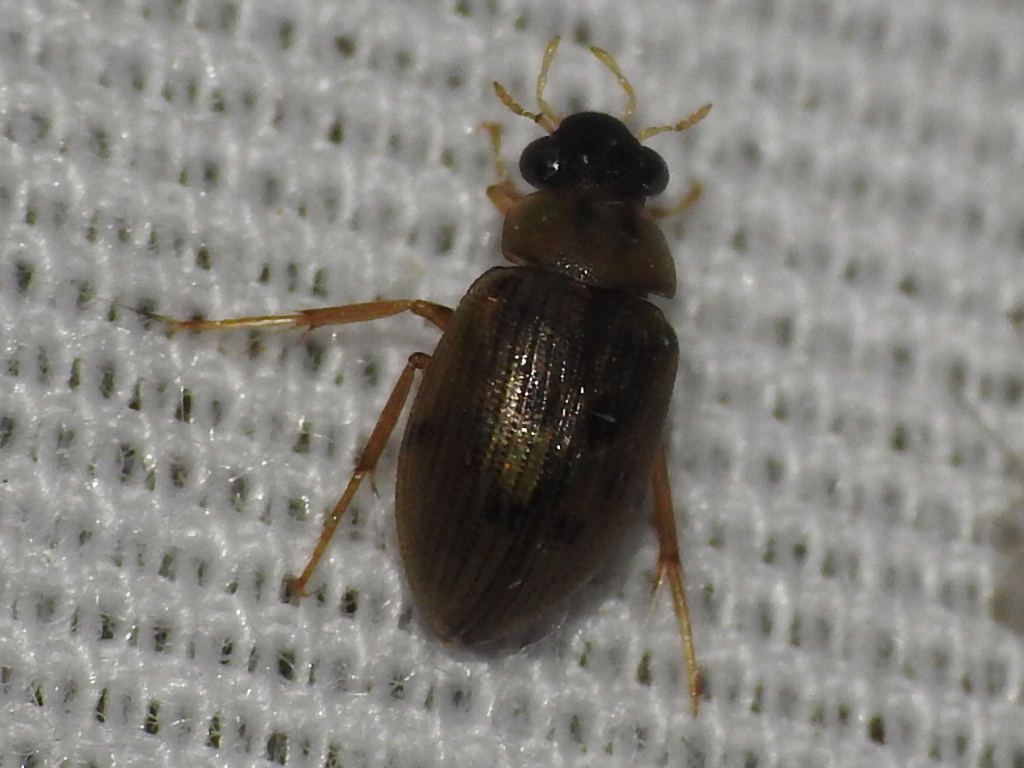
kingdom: Animalia
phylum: Arthropoda
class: Insecta
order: Coleoptera
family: Hydrophilidae
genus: Berosus
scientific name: Berosus
